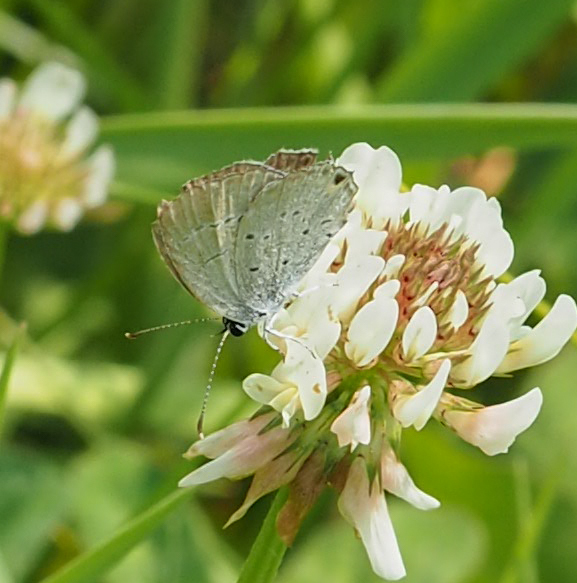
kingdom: Animalia
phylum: Arthropoda
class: Insecta
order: Lepidoptera
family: Lycaenidae
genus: Elkalyce
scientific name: Elkalyce comyntas
